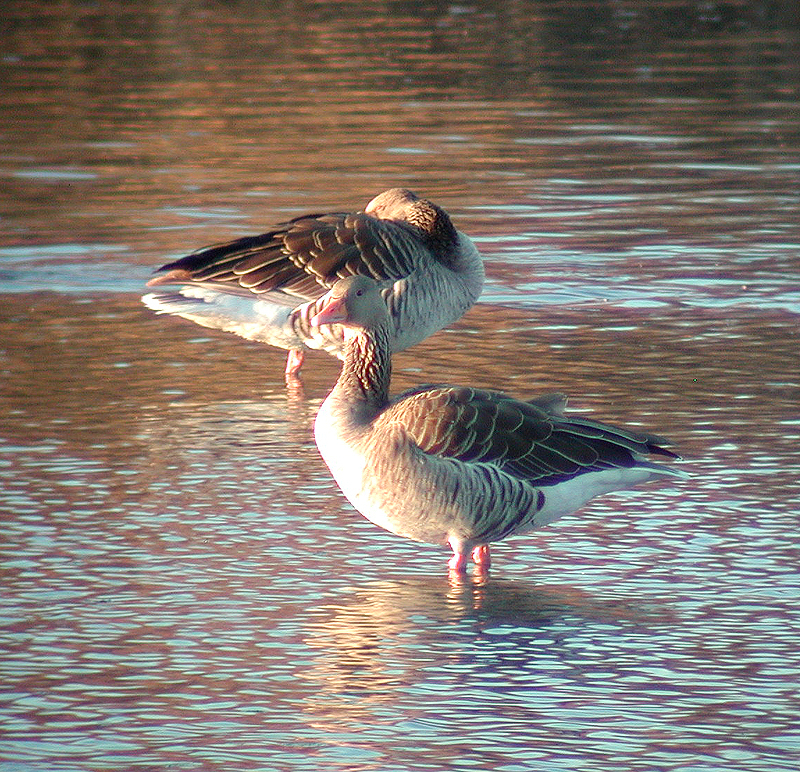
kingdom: Animalia
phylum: Chordata
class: Aves
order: Anseriformes
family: Anatidae
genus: Anser
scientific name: Anser anser
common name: Greylag goose
